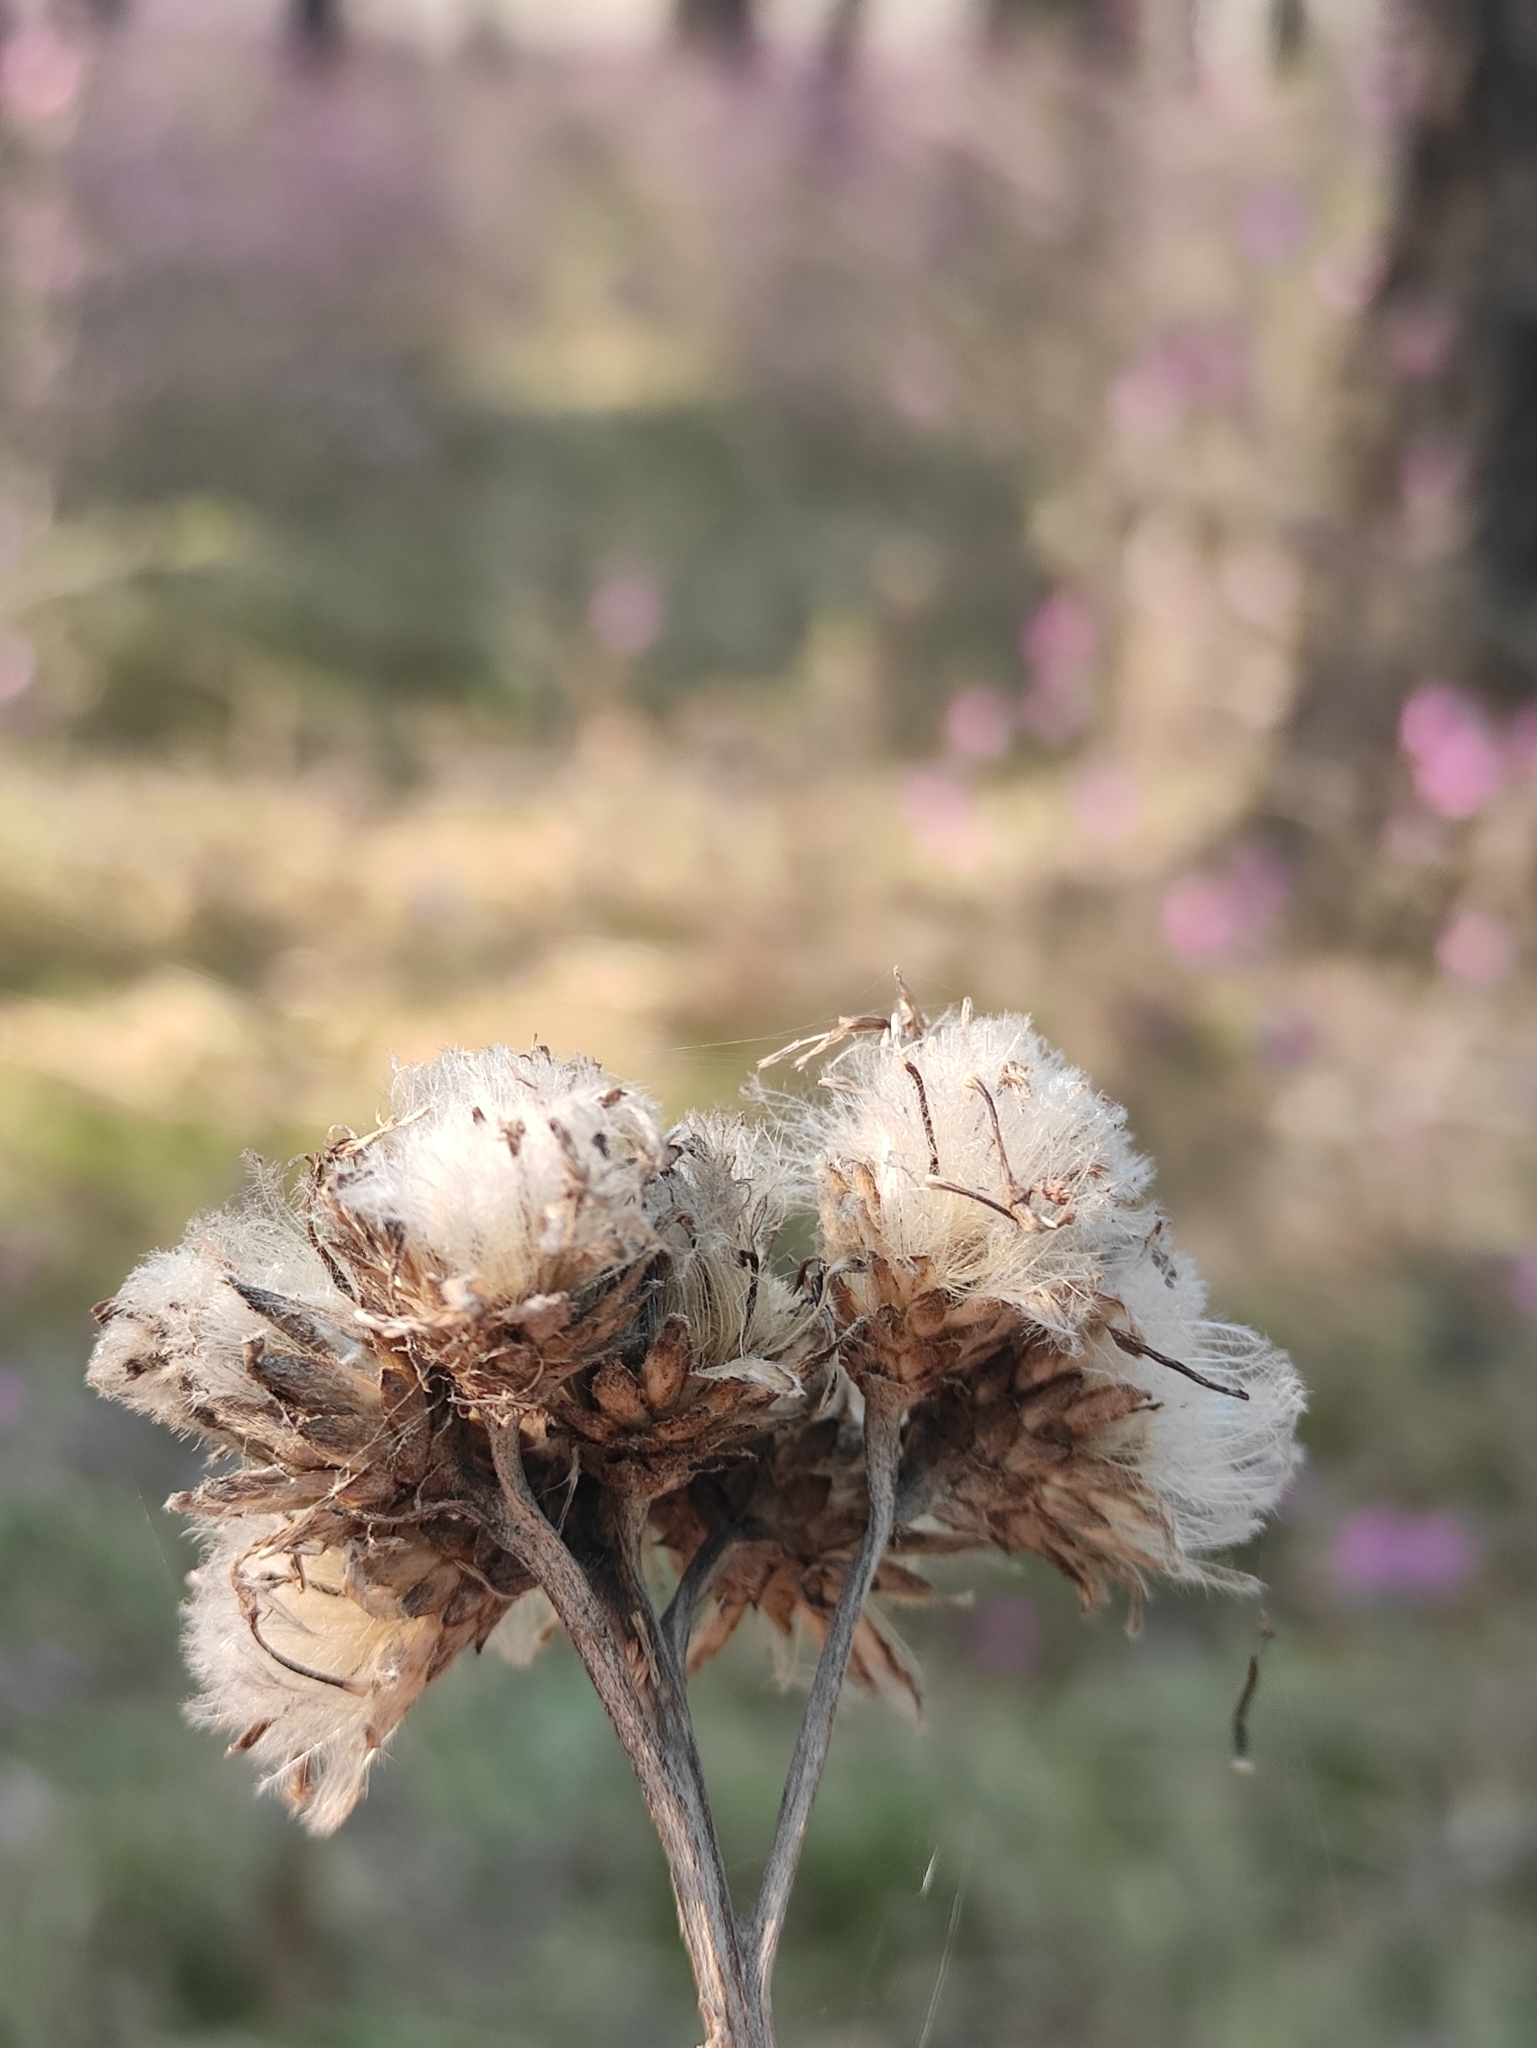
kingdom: Plantae
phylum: Tracheophyta
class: Magnoliopsida
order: Asterales
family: Asteraceae
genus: Saussurea
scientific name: Saussurea controversa
